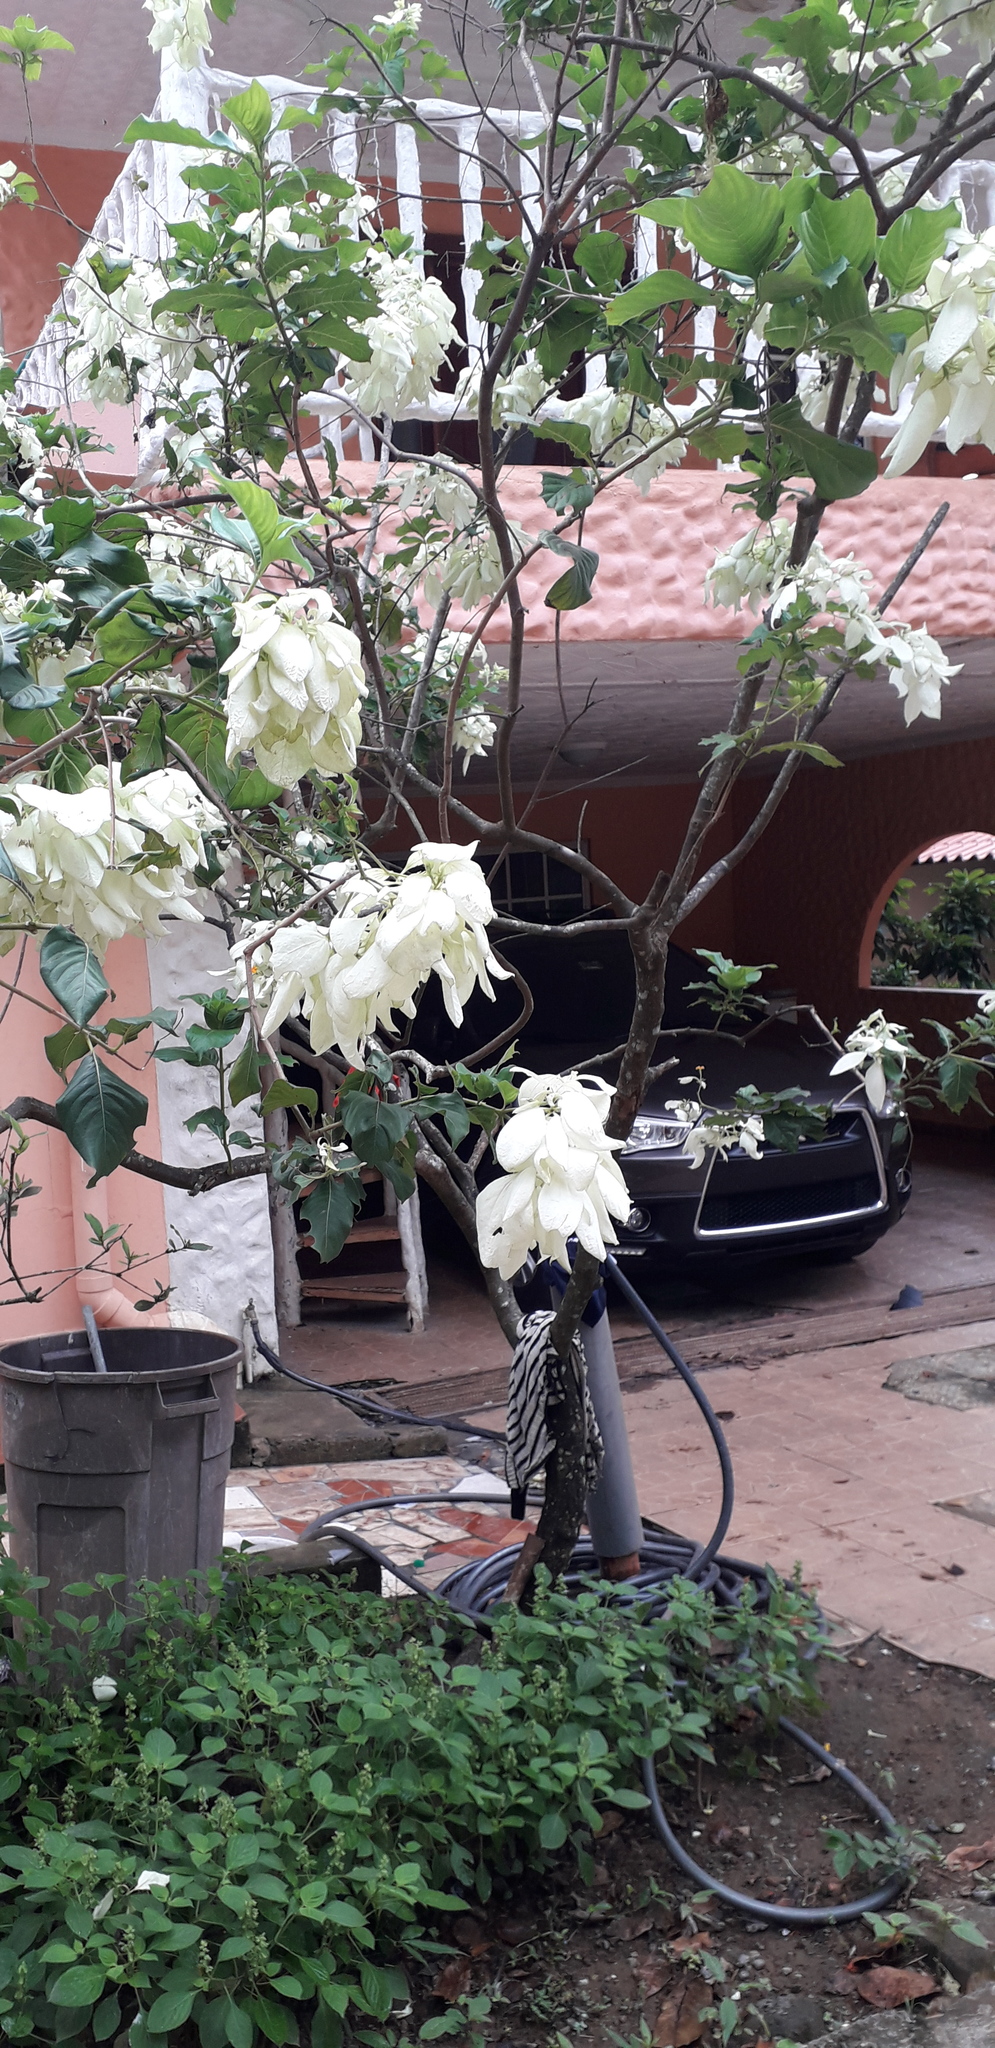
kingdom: Plantae
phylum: Tracheophyta
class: Magnoliopsida
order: Gentianales
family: Rubiaceae
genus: Mussaenda
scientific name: Mussaenda philippica
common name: Philippine mussaenda
